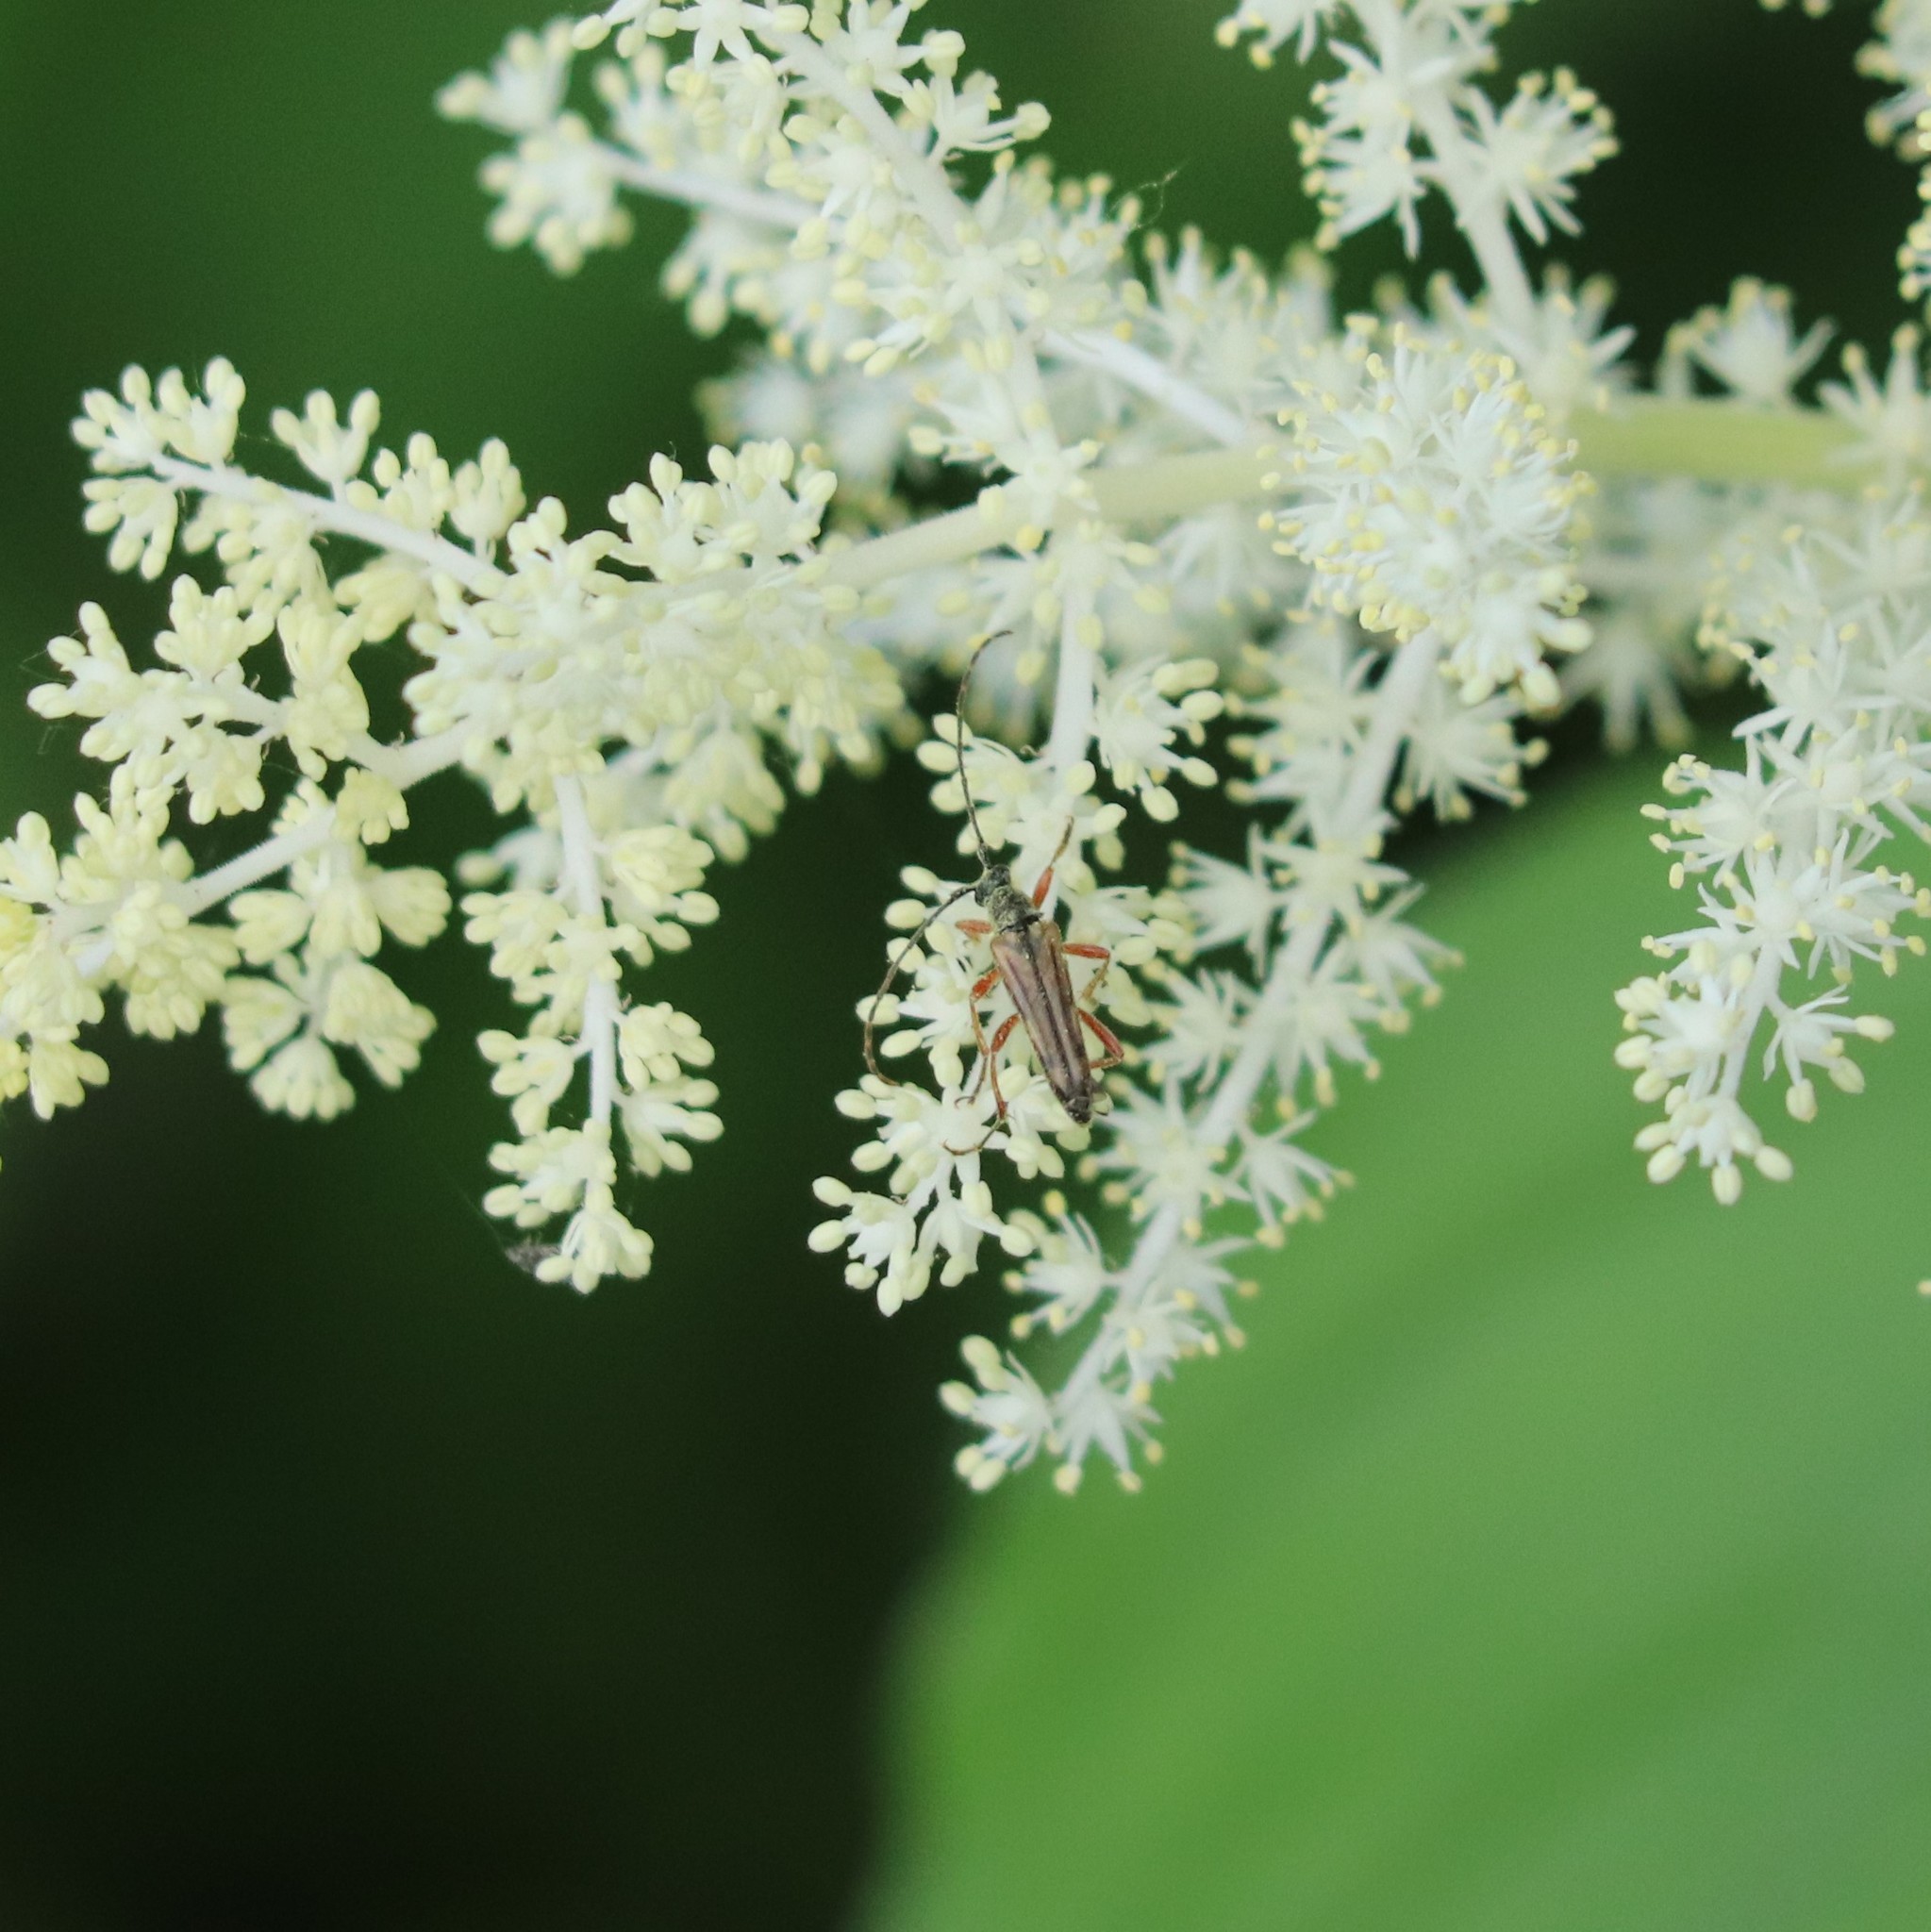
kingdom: Animalia
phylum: Arthropoda
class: Insecta
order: Coleoptera
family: Cerambycidae
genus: Analeptura
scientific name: Analeptura lineola
